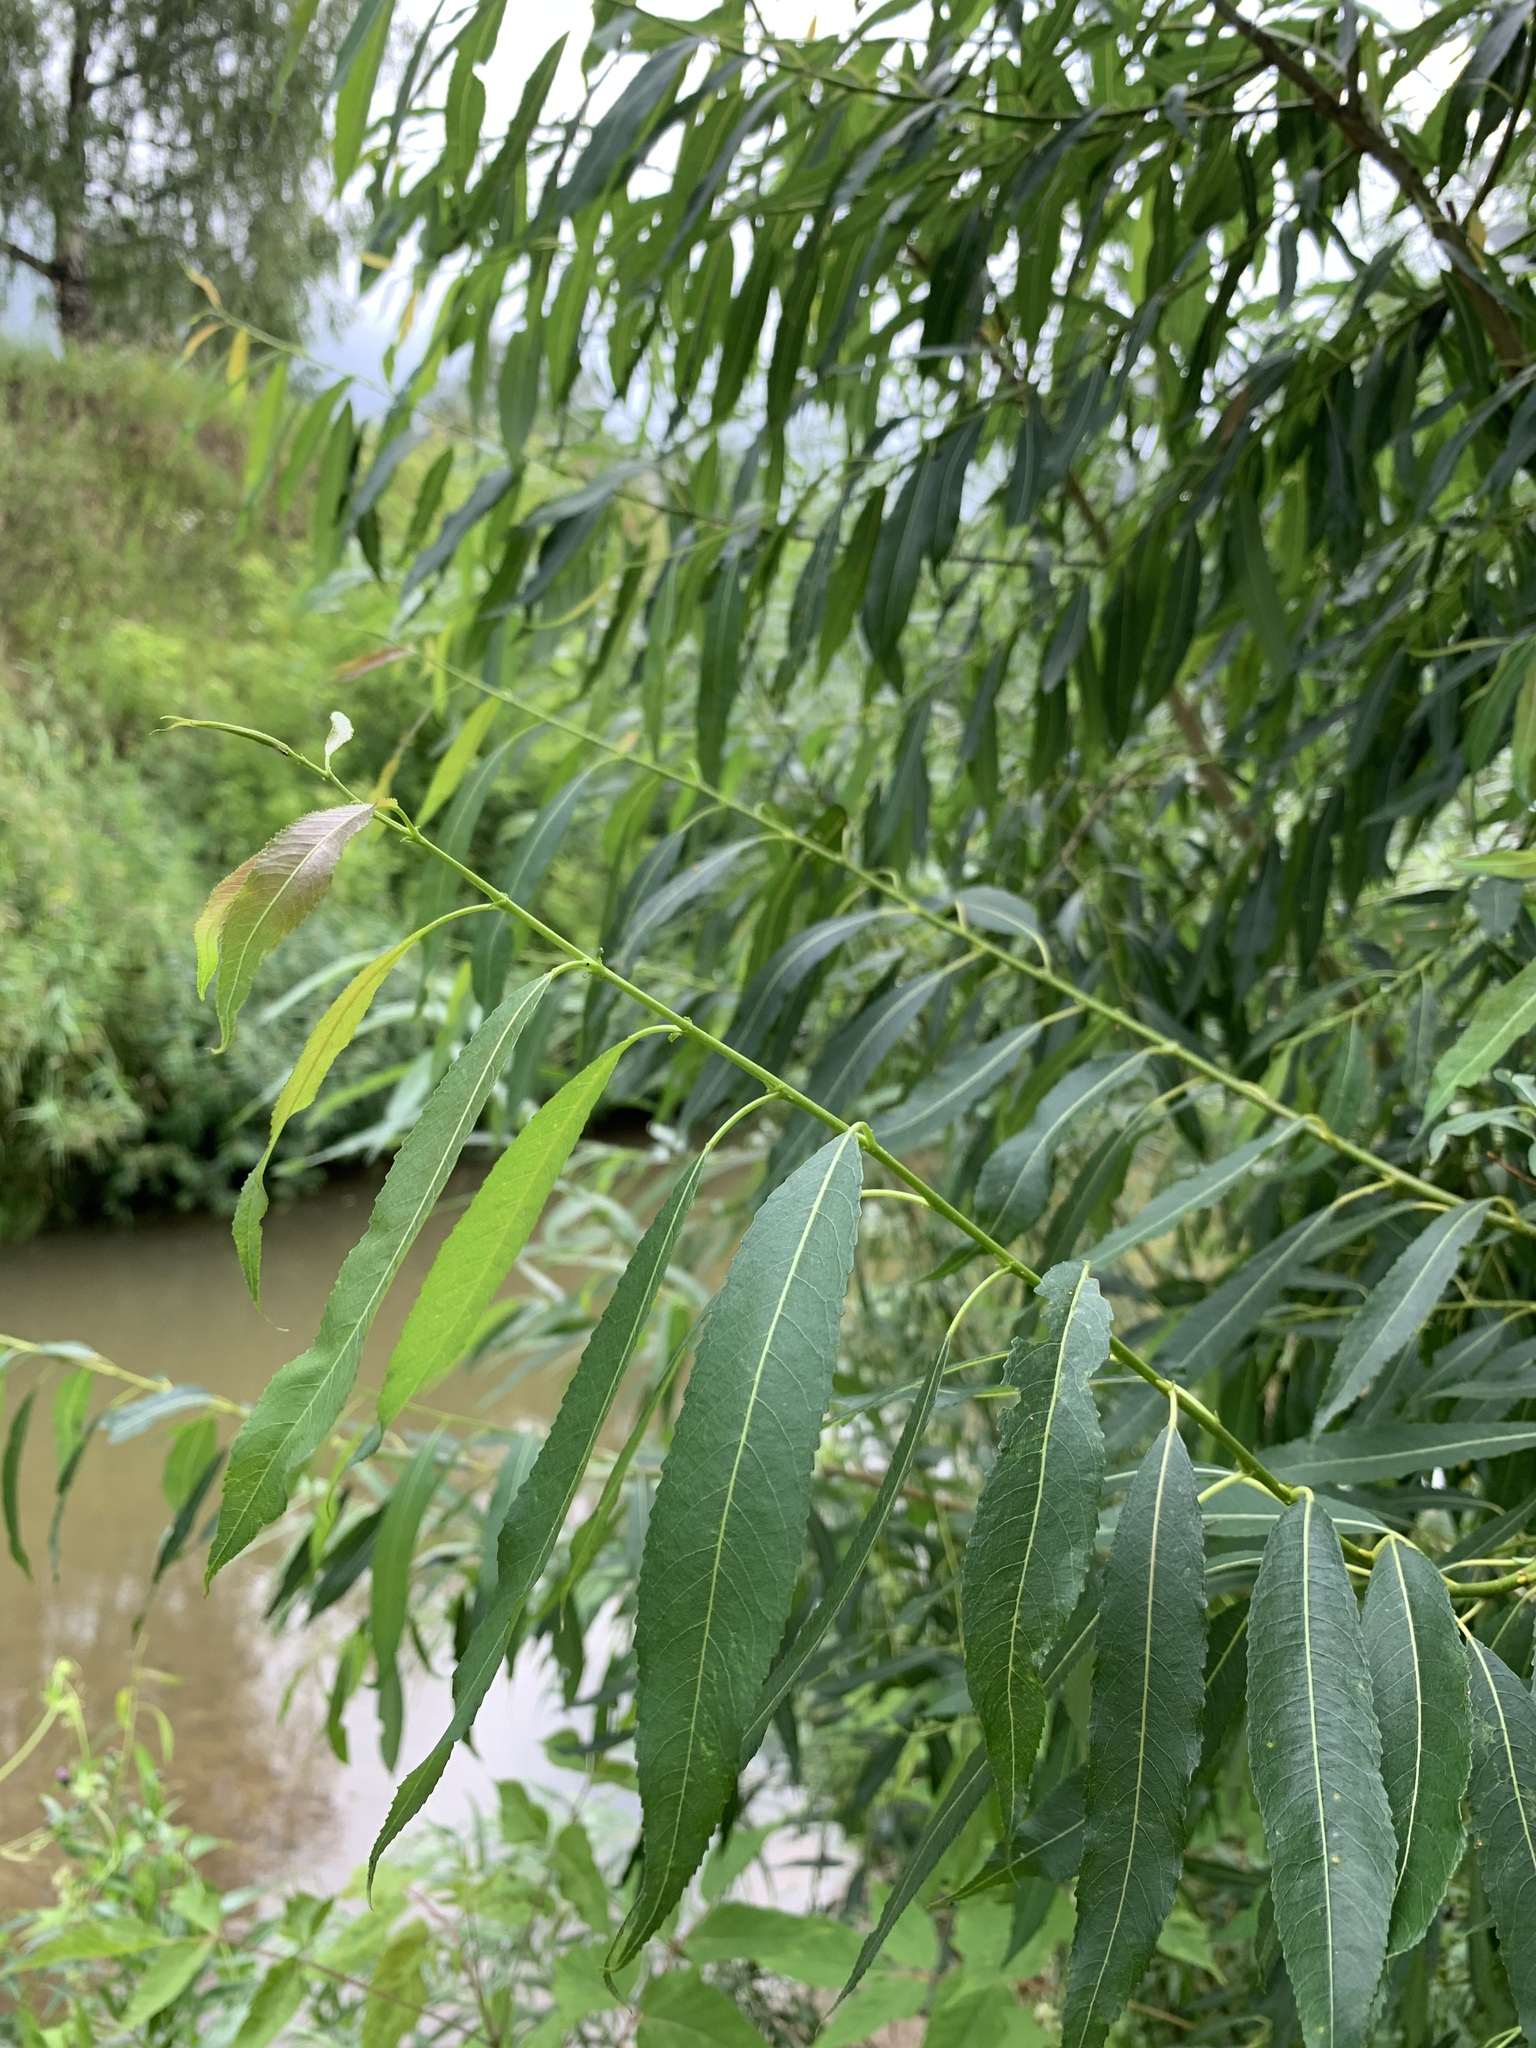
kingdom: Plantae
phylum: Tracheophyta
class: Magnoliopsida
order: Malpighiales
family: Salicaceae
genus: Salix
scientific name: Salix triandra
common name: Almond willow
